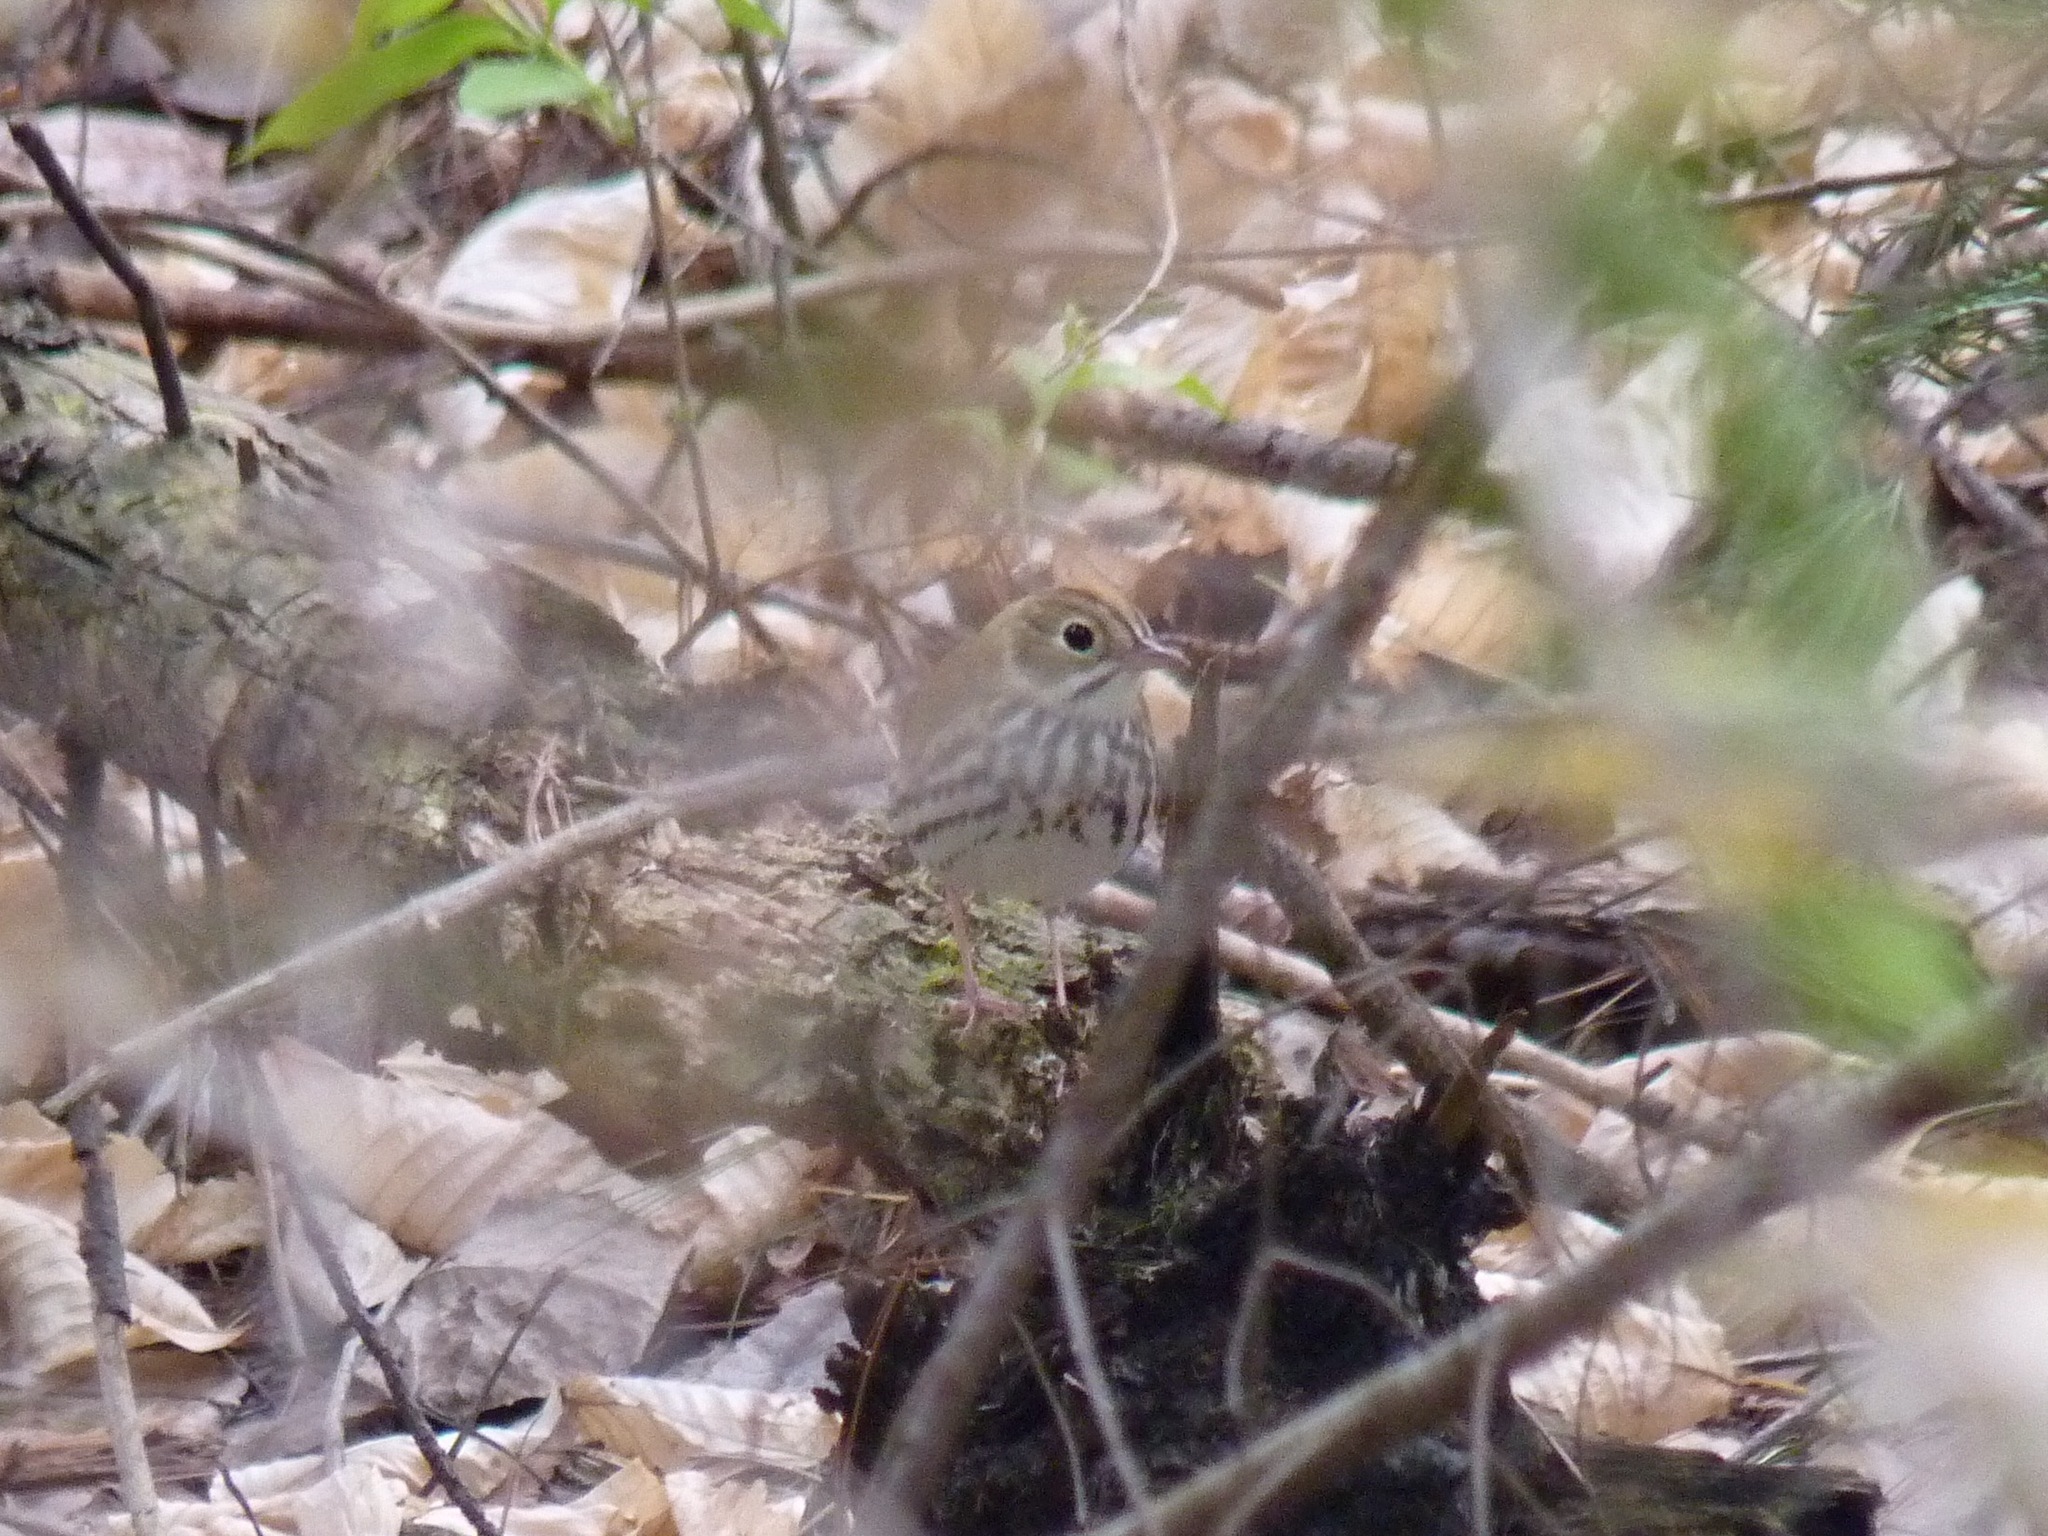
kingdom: Animalia
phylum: Chordata
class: Aves
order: Passeriformes
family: Parulidae
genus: Seiurus
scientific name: Seiurus aurocapilla
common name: Ovenbird
